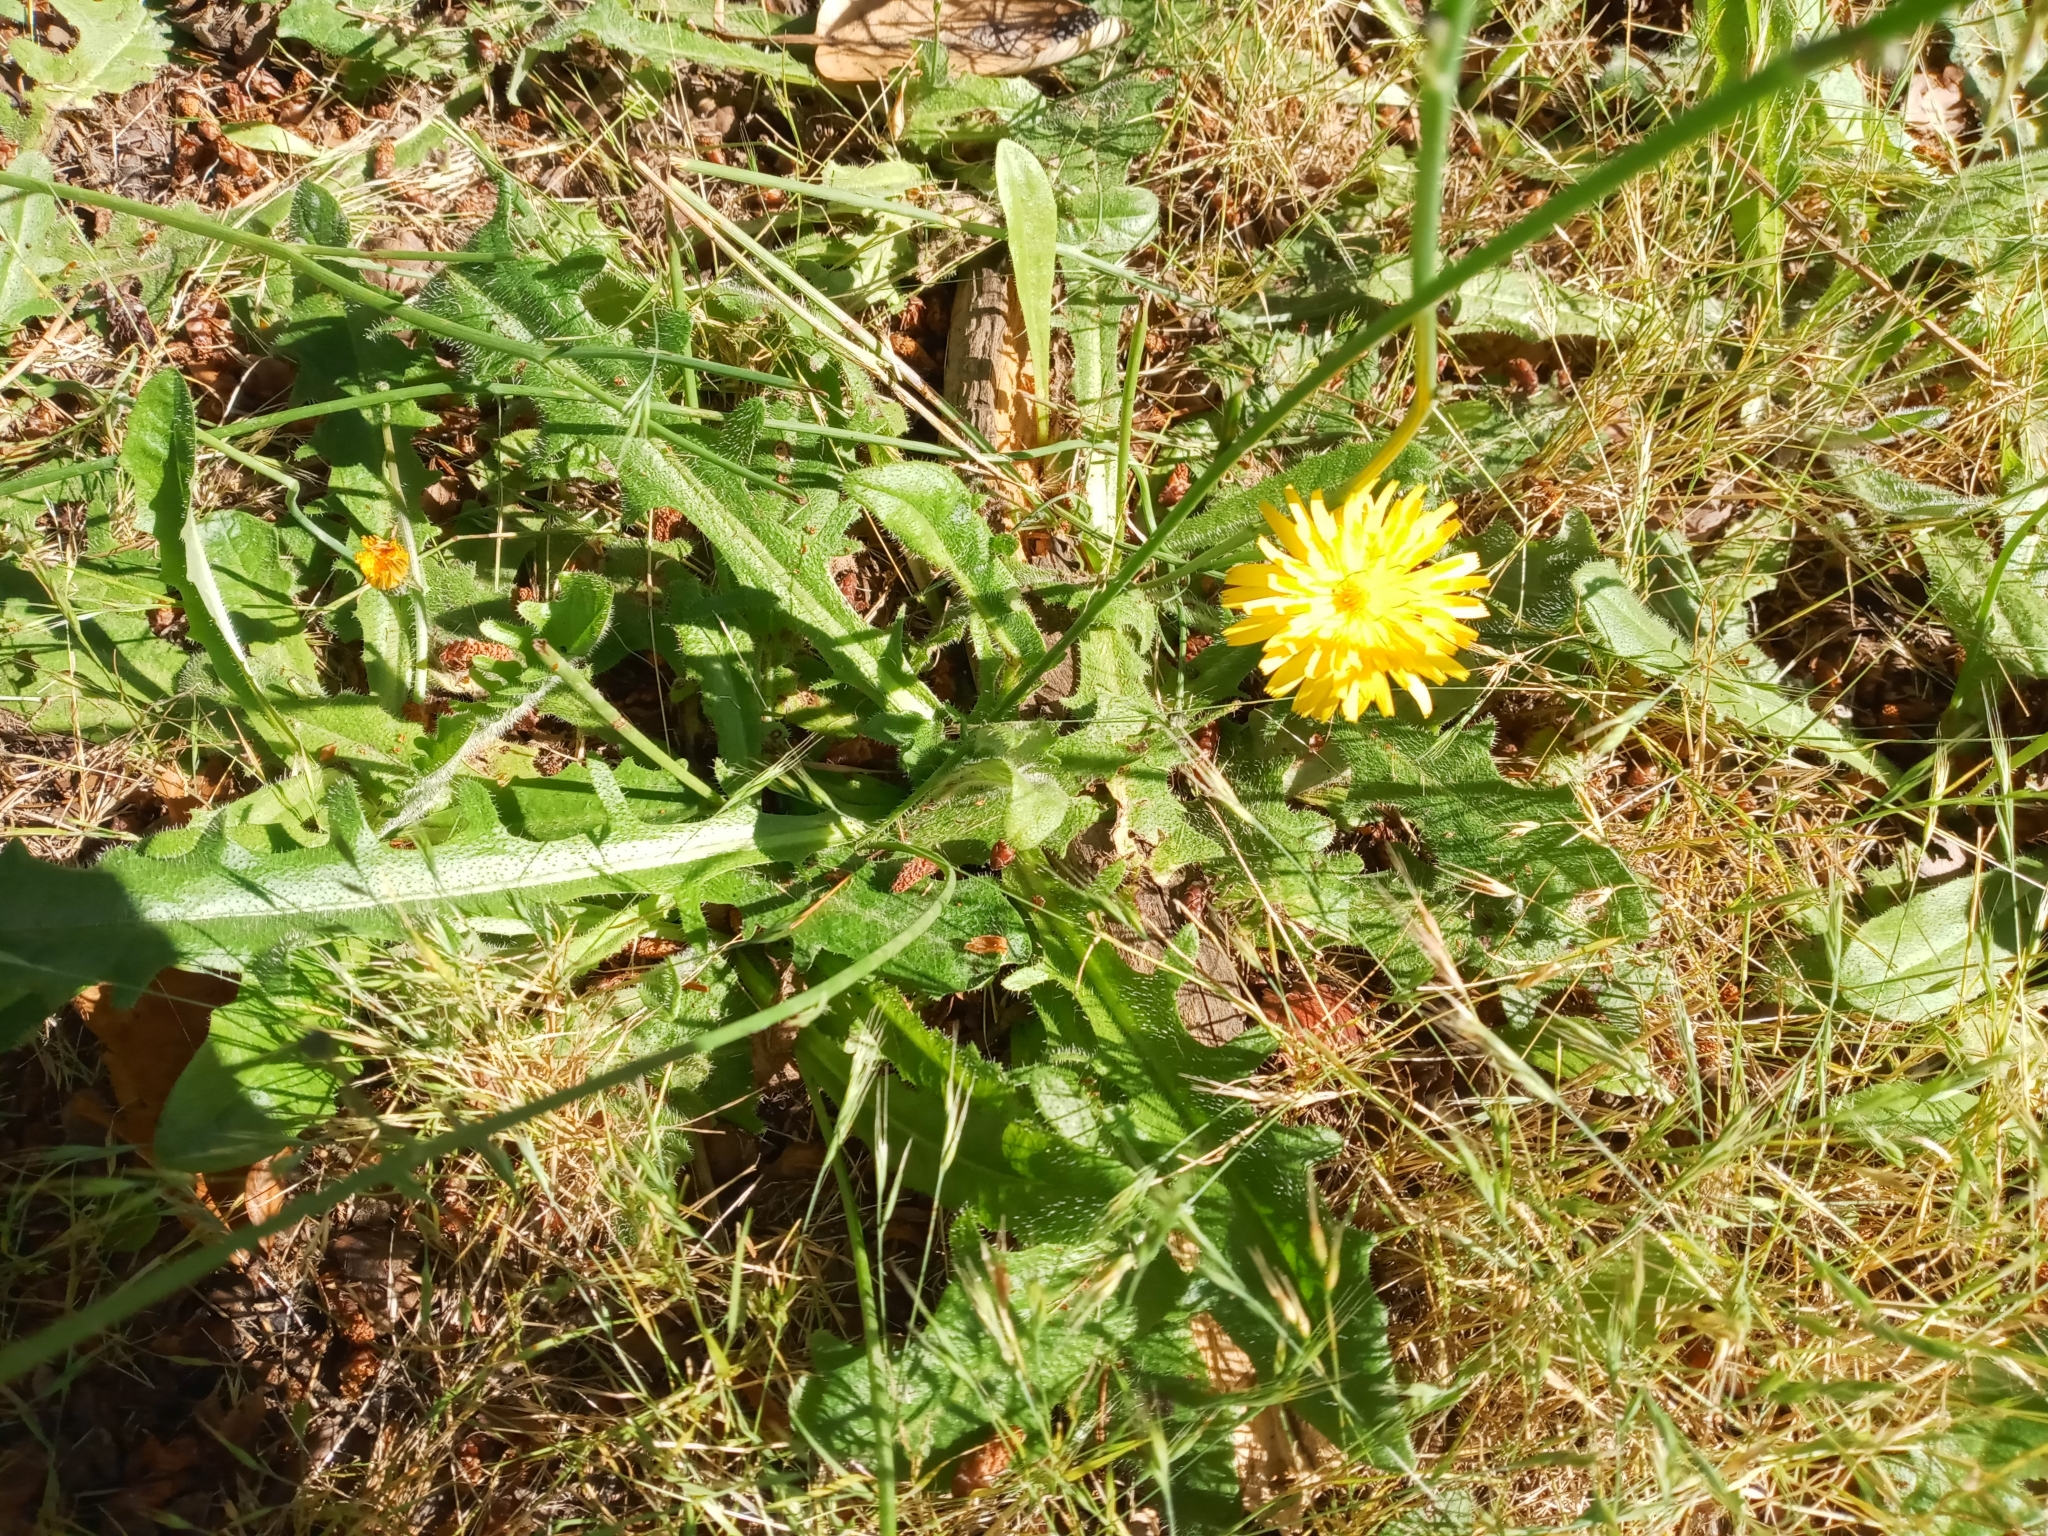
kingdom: Plantae
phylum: Tracheophyta
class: Magnoliopsida
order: Asterales
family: Asteraceae
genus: Hypochaeris
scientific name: Hypochaeris radicata
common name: Flatweed
